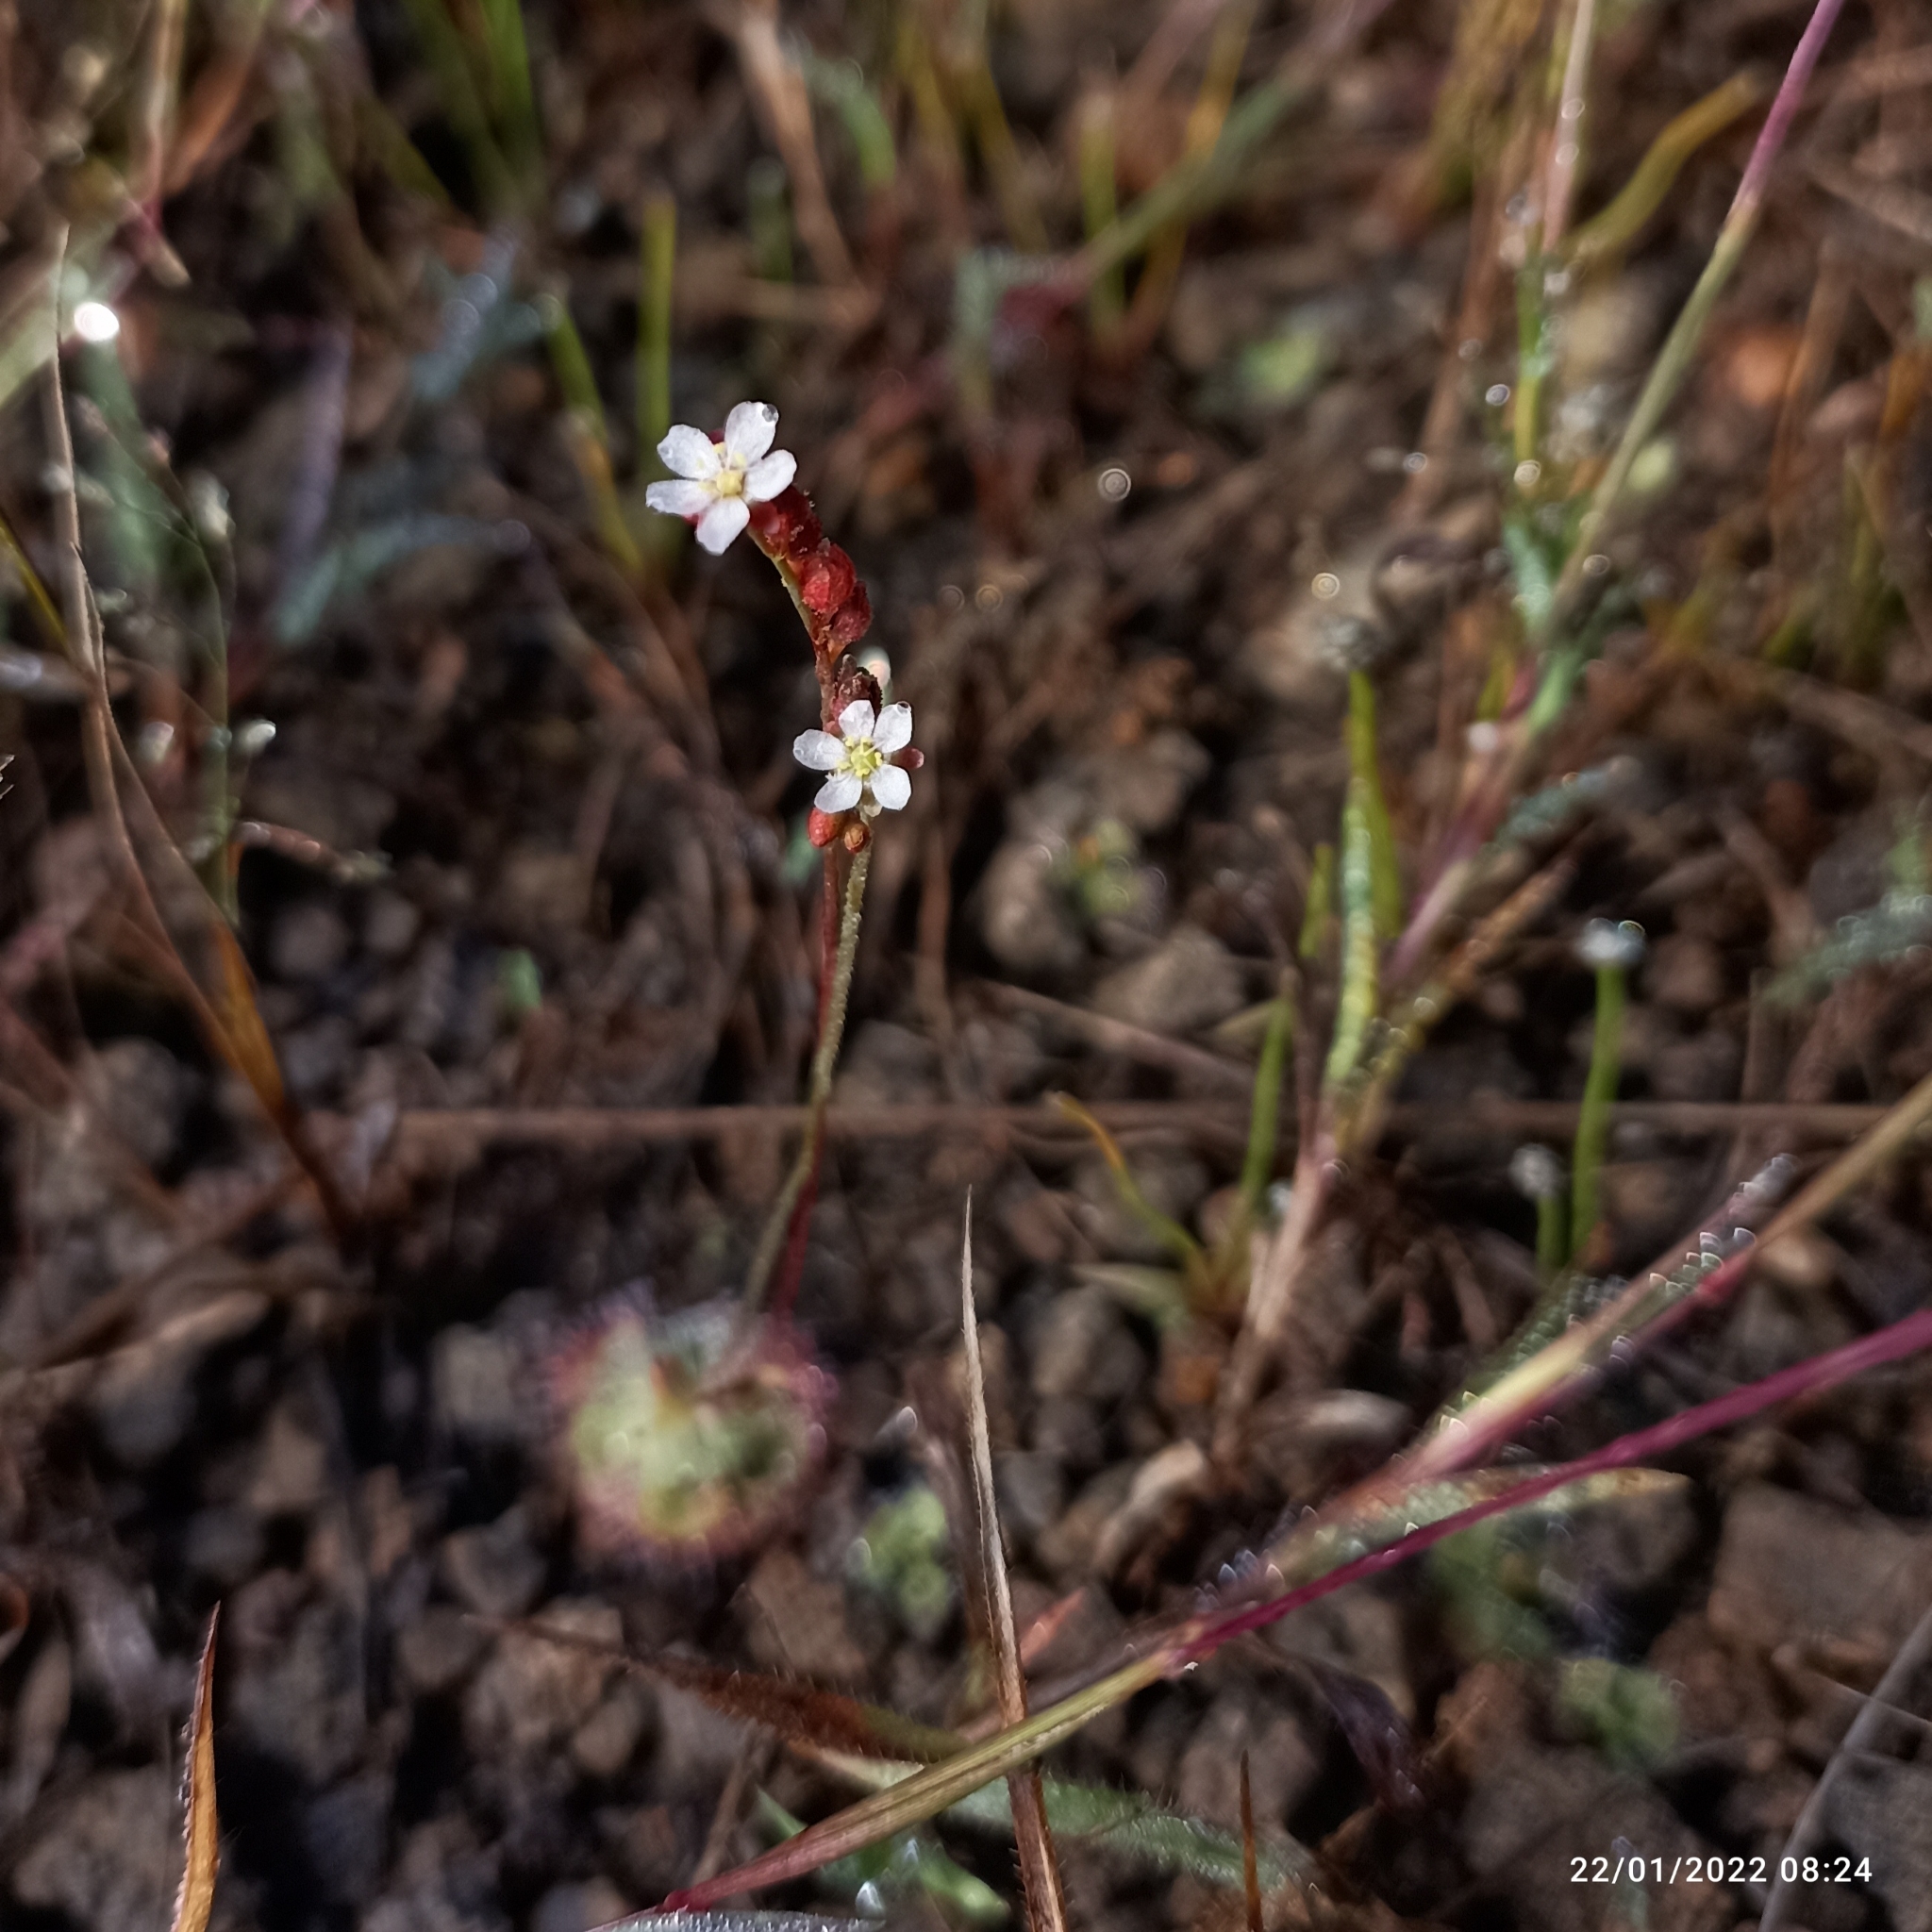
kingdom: Plantae
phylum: Tracheophyta
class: Magnoliopsida
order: Caryophyllales
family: Droseraceae
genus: Drosera
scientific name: Drosera spatulata
